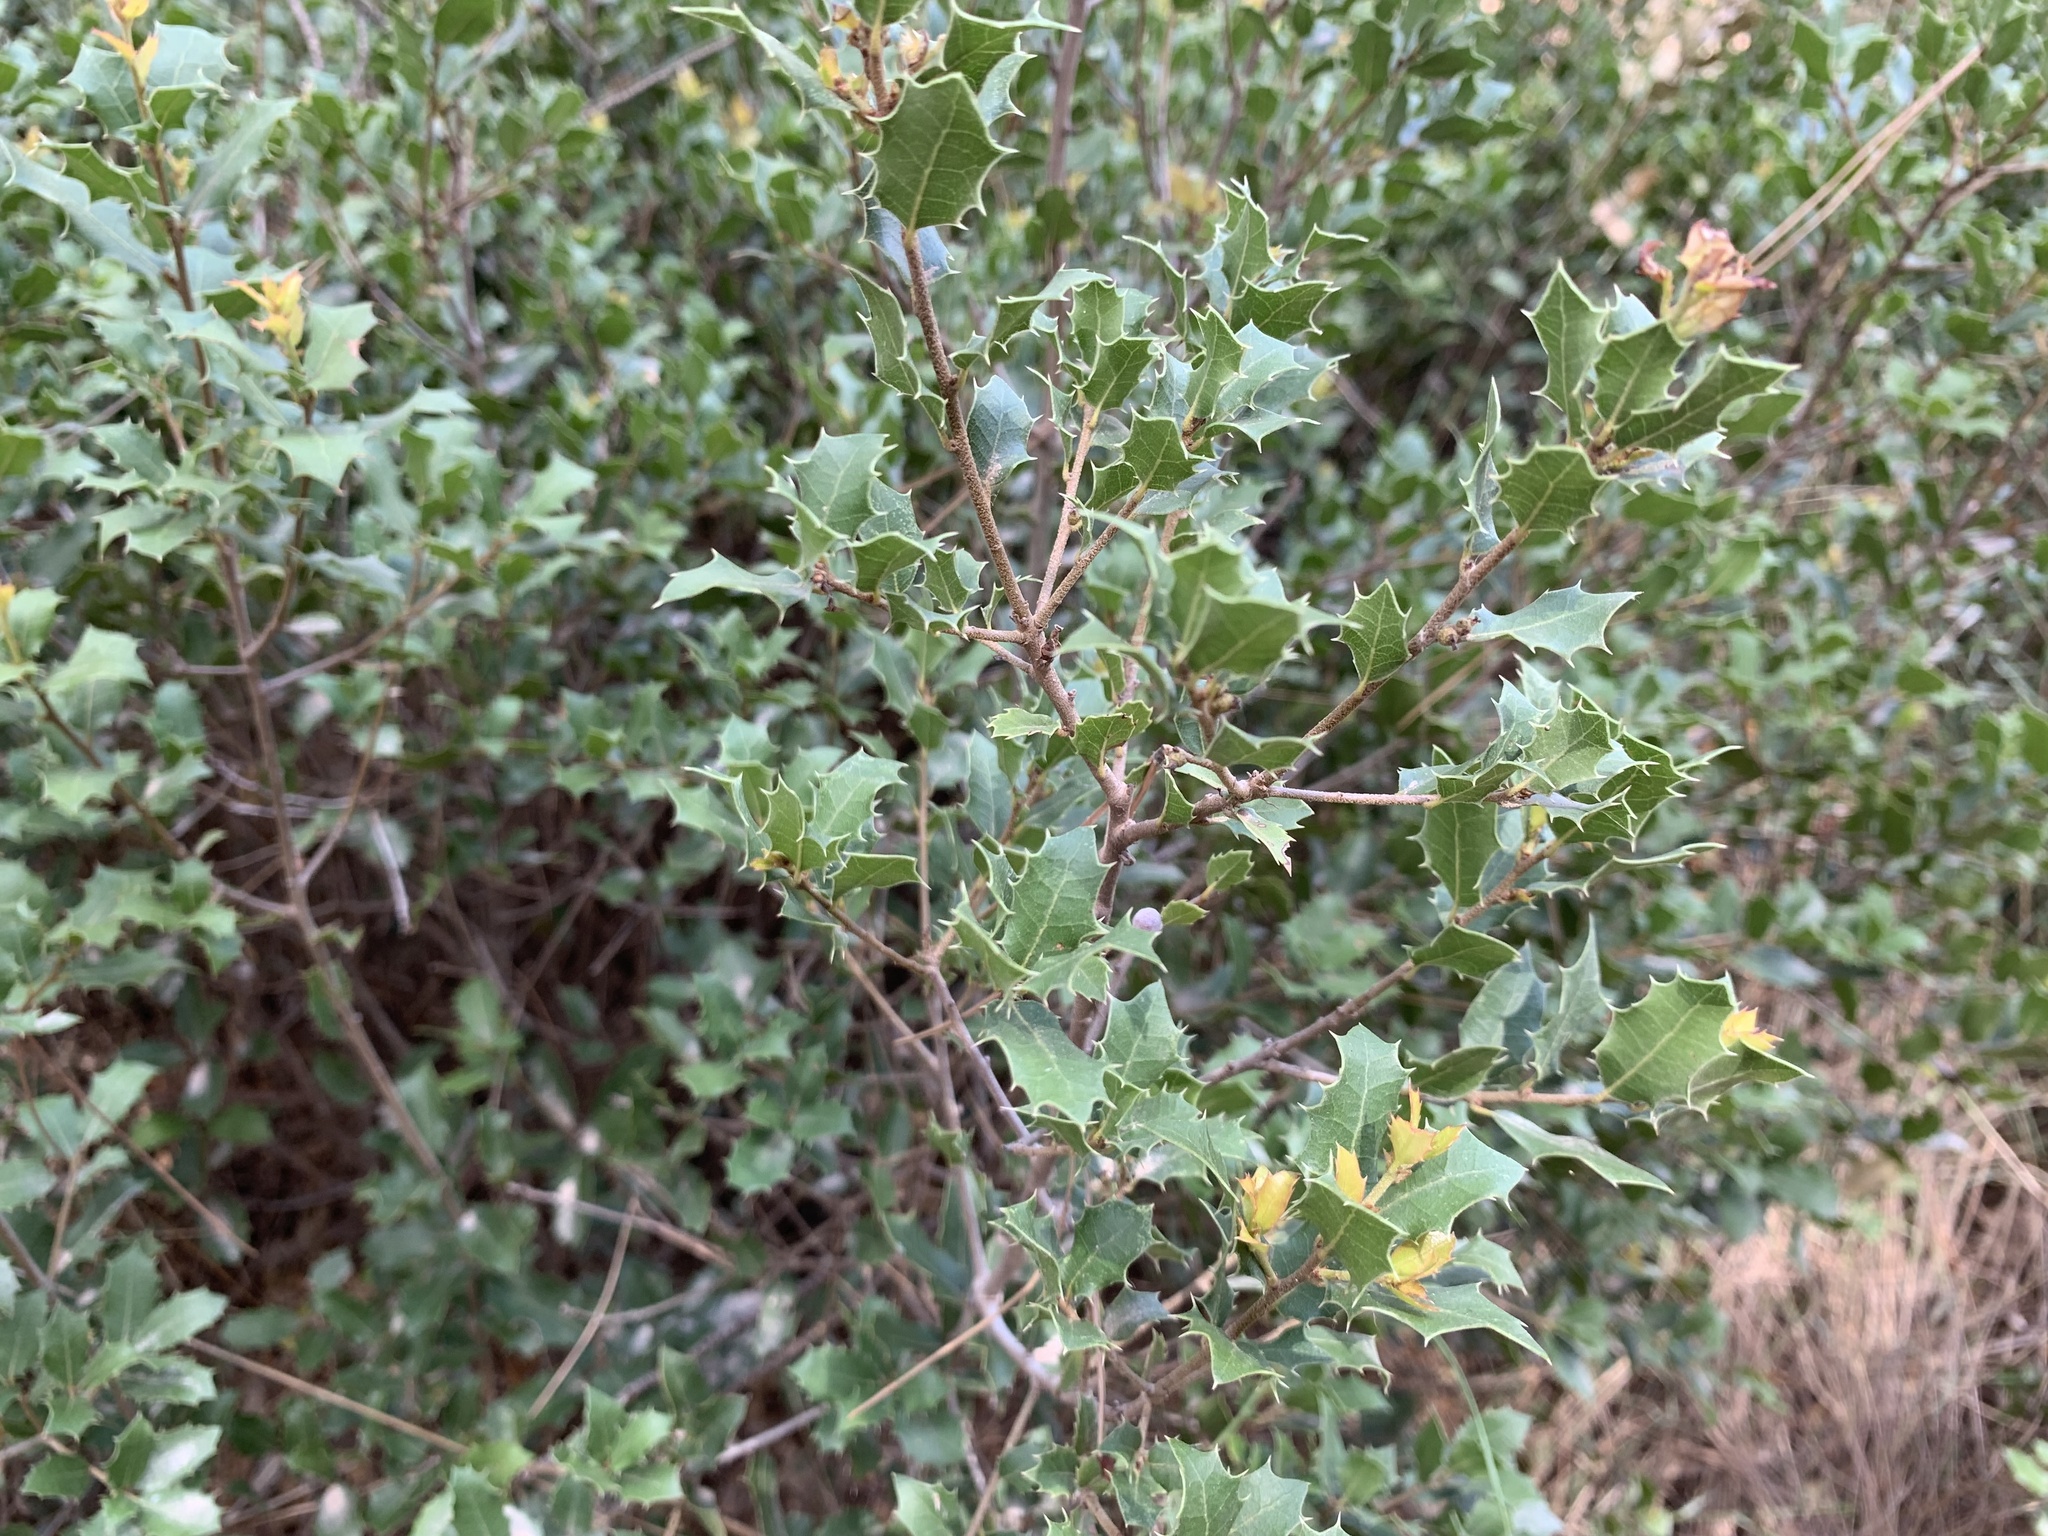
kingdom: Plantae
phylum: Tracheophyta
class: Magnoliopsida
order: Fagales
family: Fagaceae
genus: Quercus
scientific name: Quercus coccifera
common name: Kermes oak
